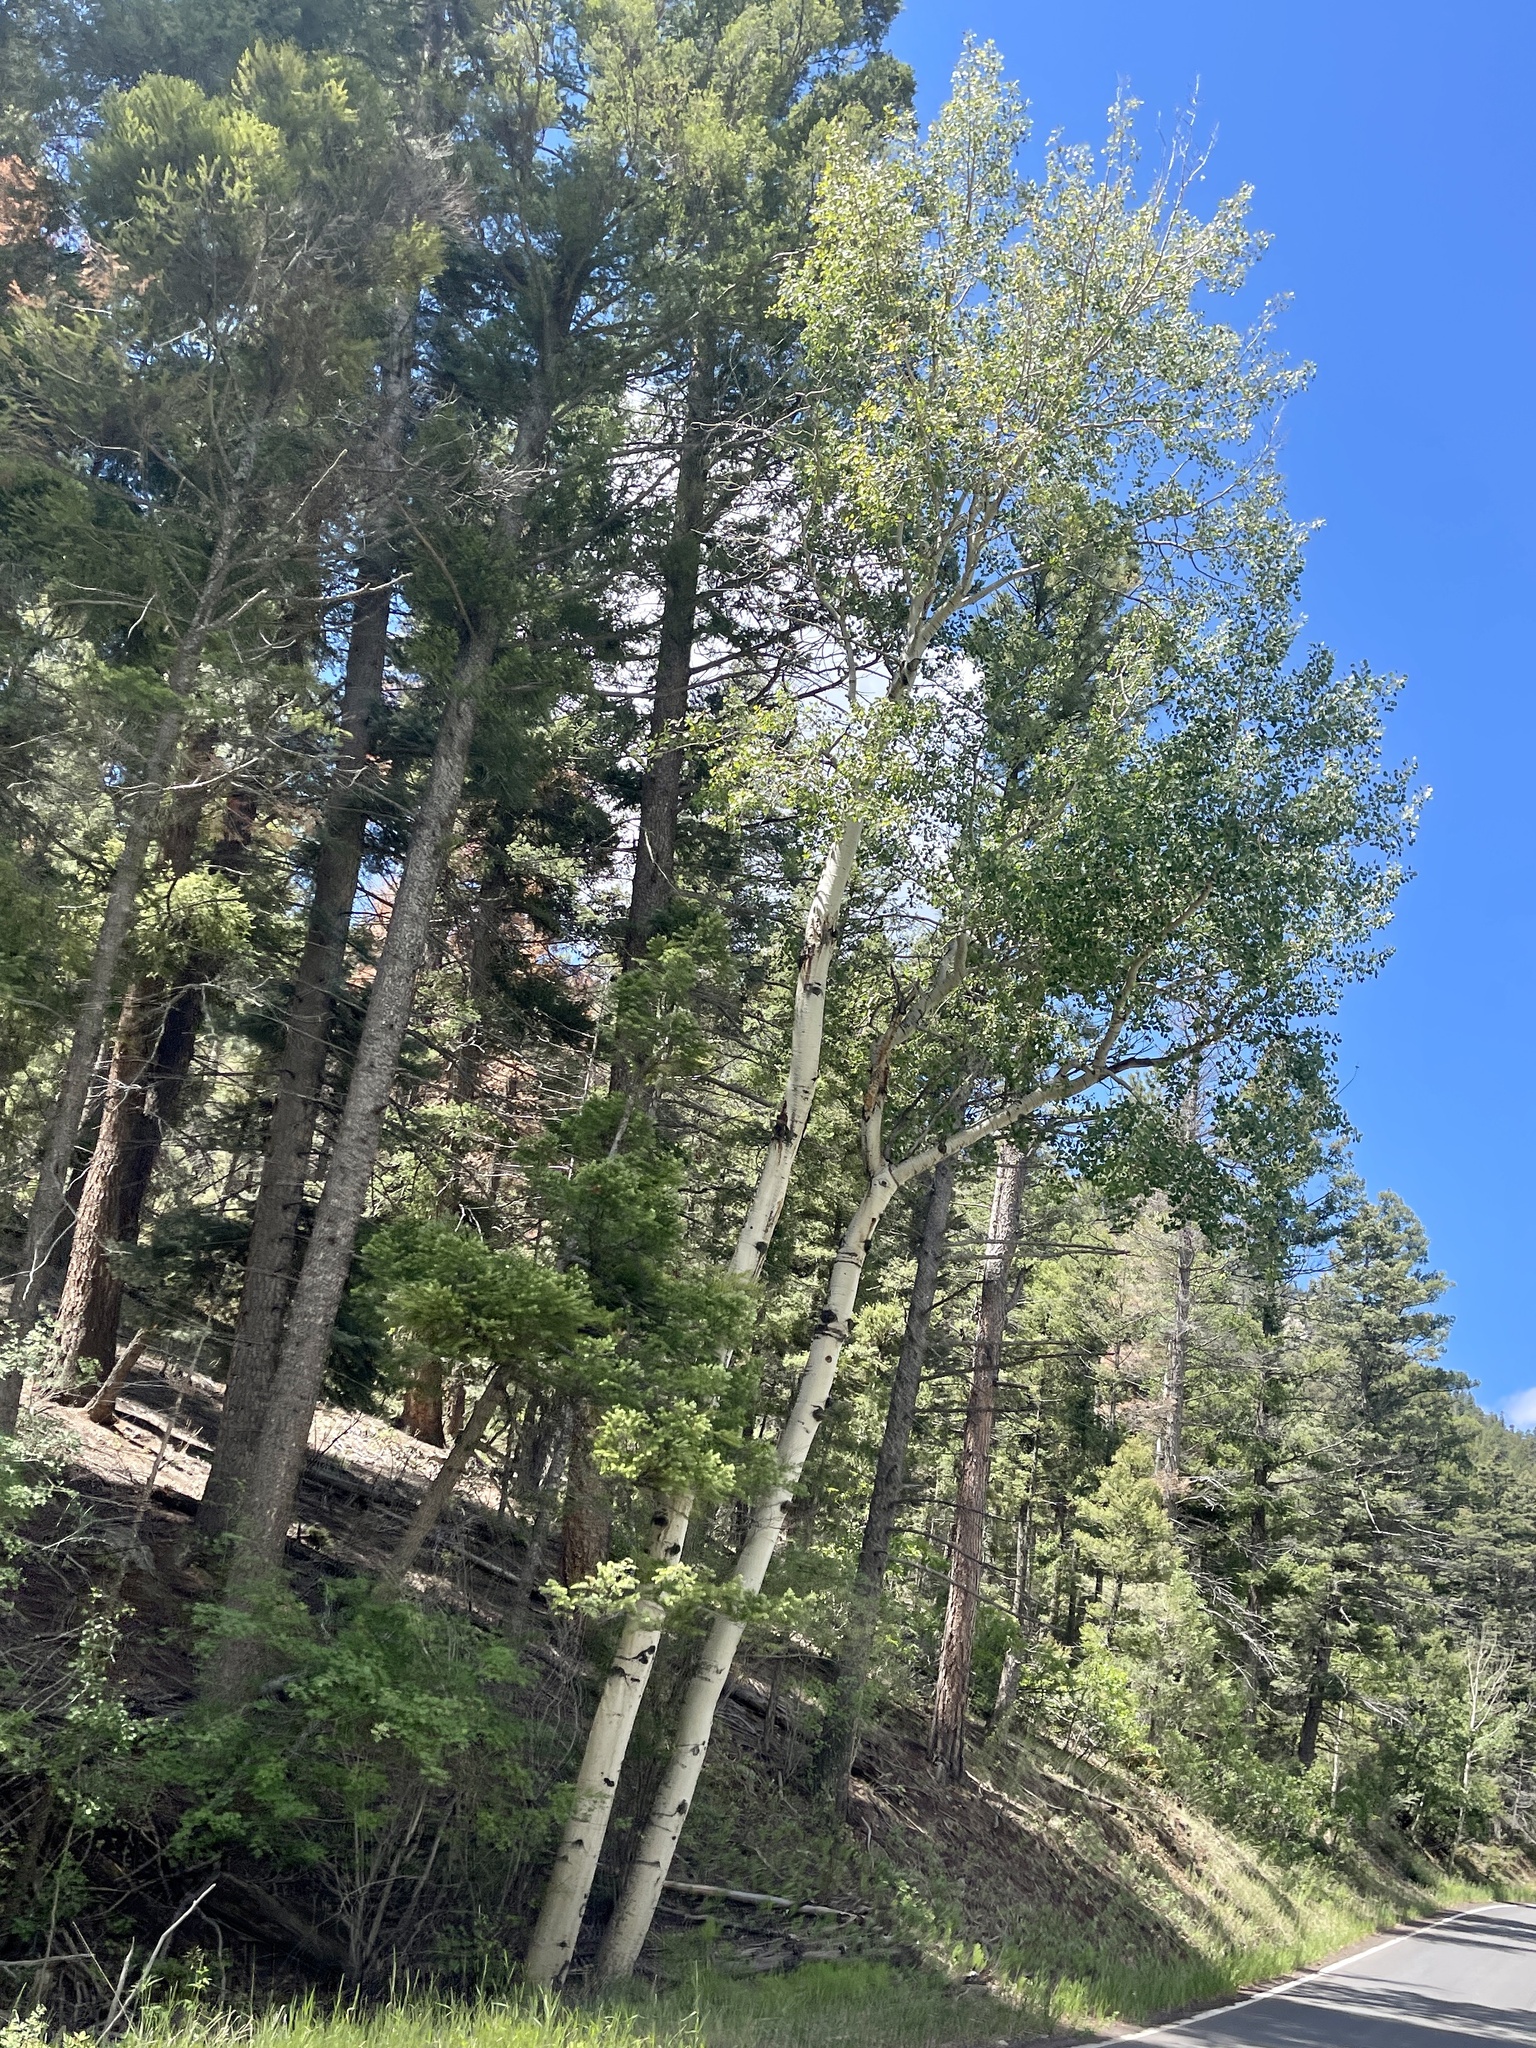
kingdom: Plantae
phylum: Tracheophyta
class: Magnoliopsida
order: Malpighiales
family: Salicaceae
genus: Populus
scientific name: Populus tremuloides
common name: Quaking aspen
